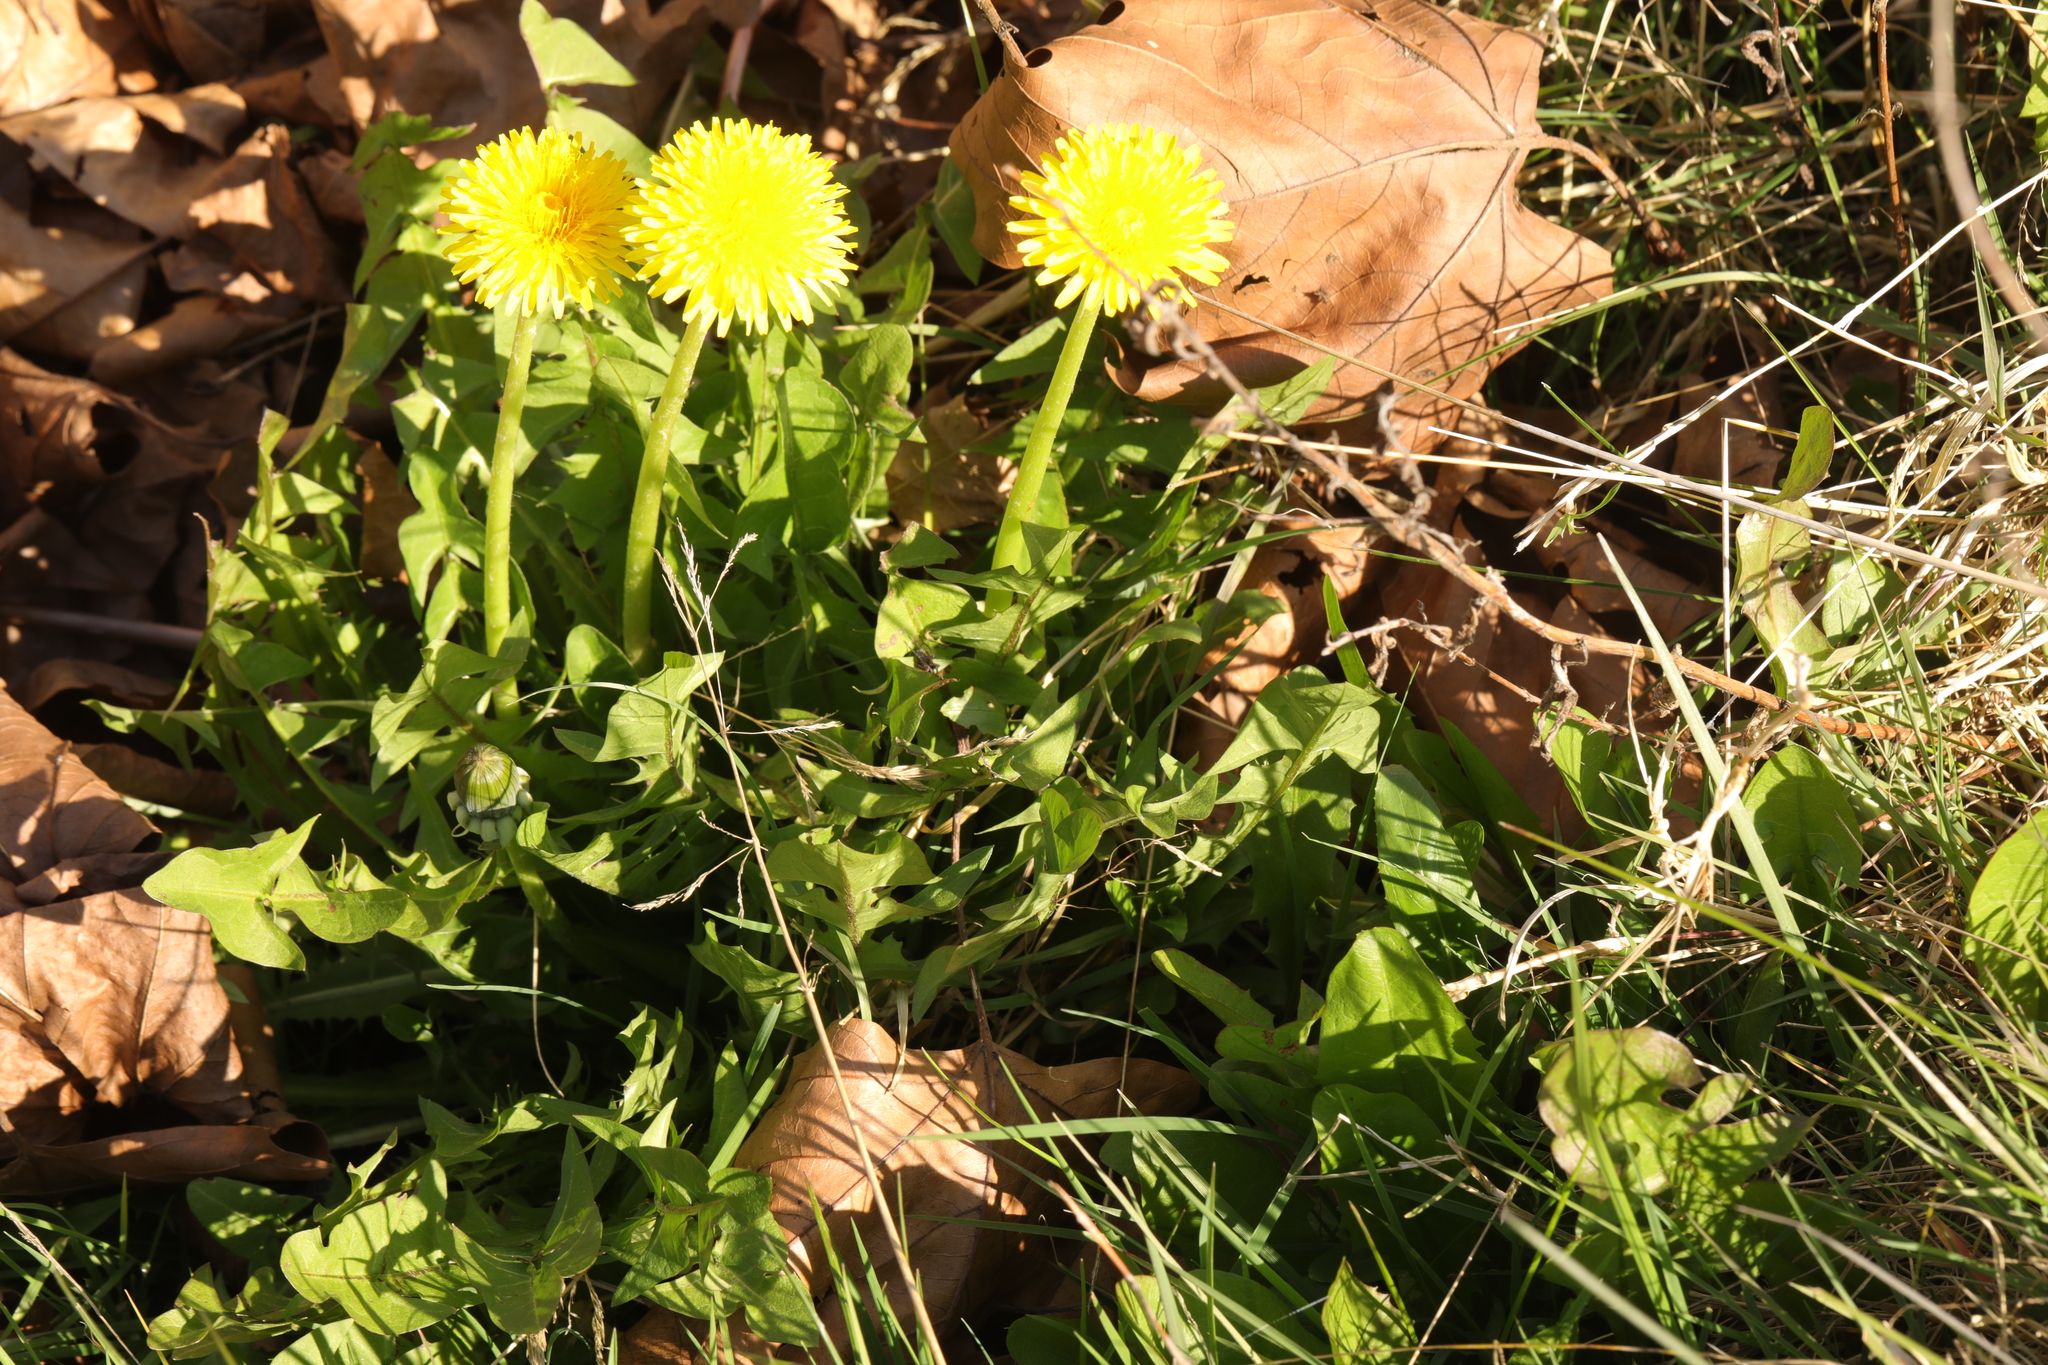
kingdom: Plantae
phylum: Tracheophyta
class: Magnoliopsida
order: Asterales
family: Asteraceae
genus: Taraxacum
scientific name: Taraxacum
